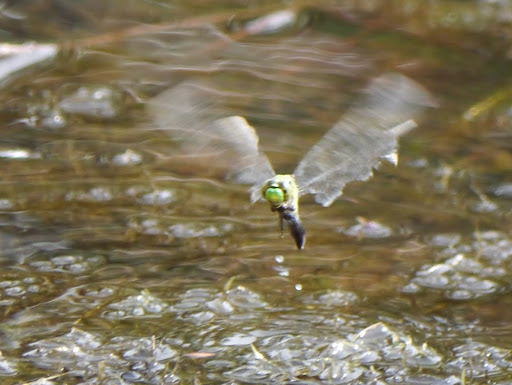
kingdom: Animalia
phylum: Arthropoda
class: Insecta
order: Odonata
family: Libellulidae
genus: Erythemis
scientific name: Erythemis simplicicollis
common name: Eastern pondhawk
